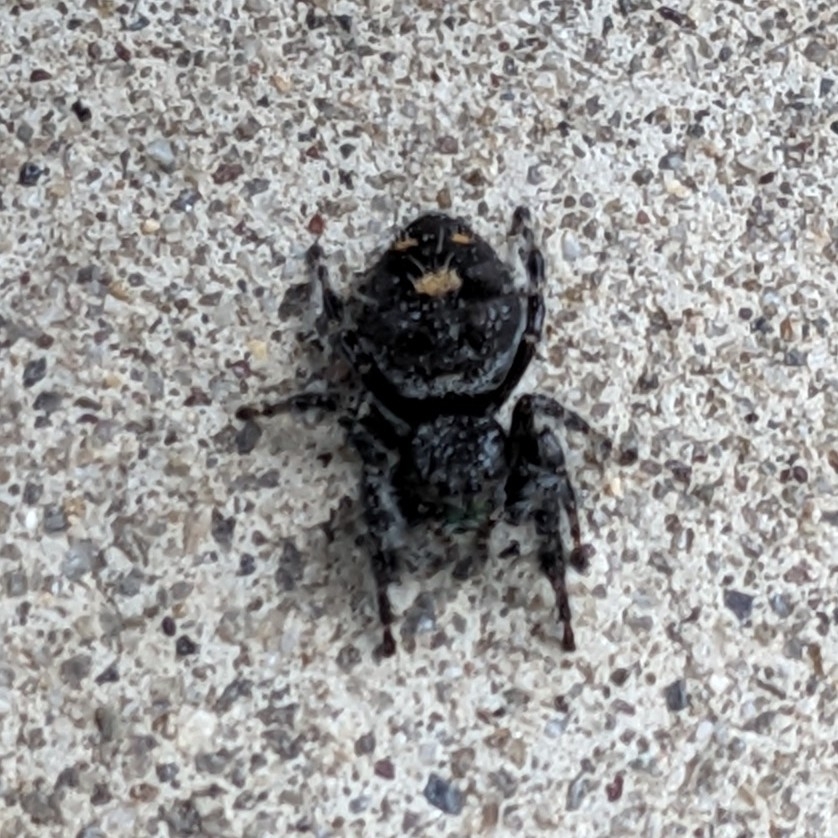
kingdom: Animalia
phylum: Arthropoda
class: Arachnida
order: Araneae
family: Salticidae
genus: Phidippus
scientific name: Phidippus audax
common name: Bold jumper
